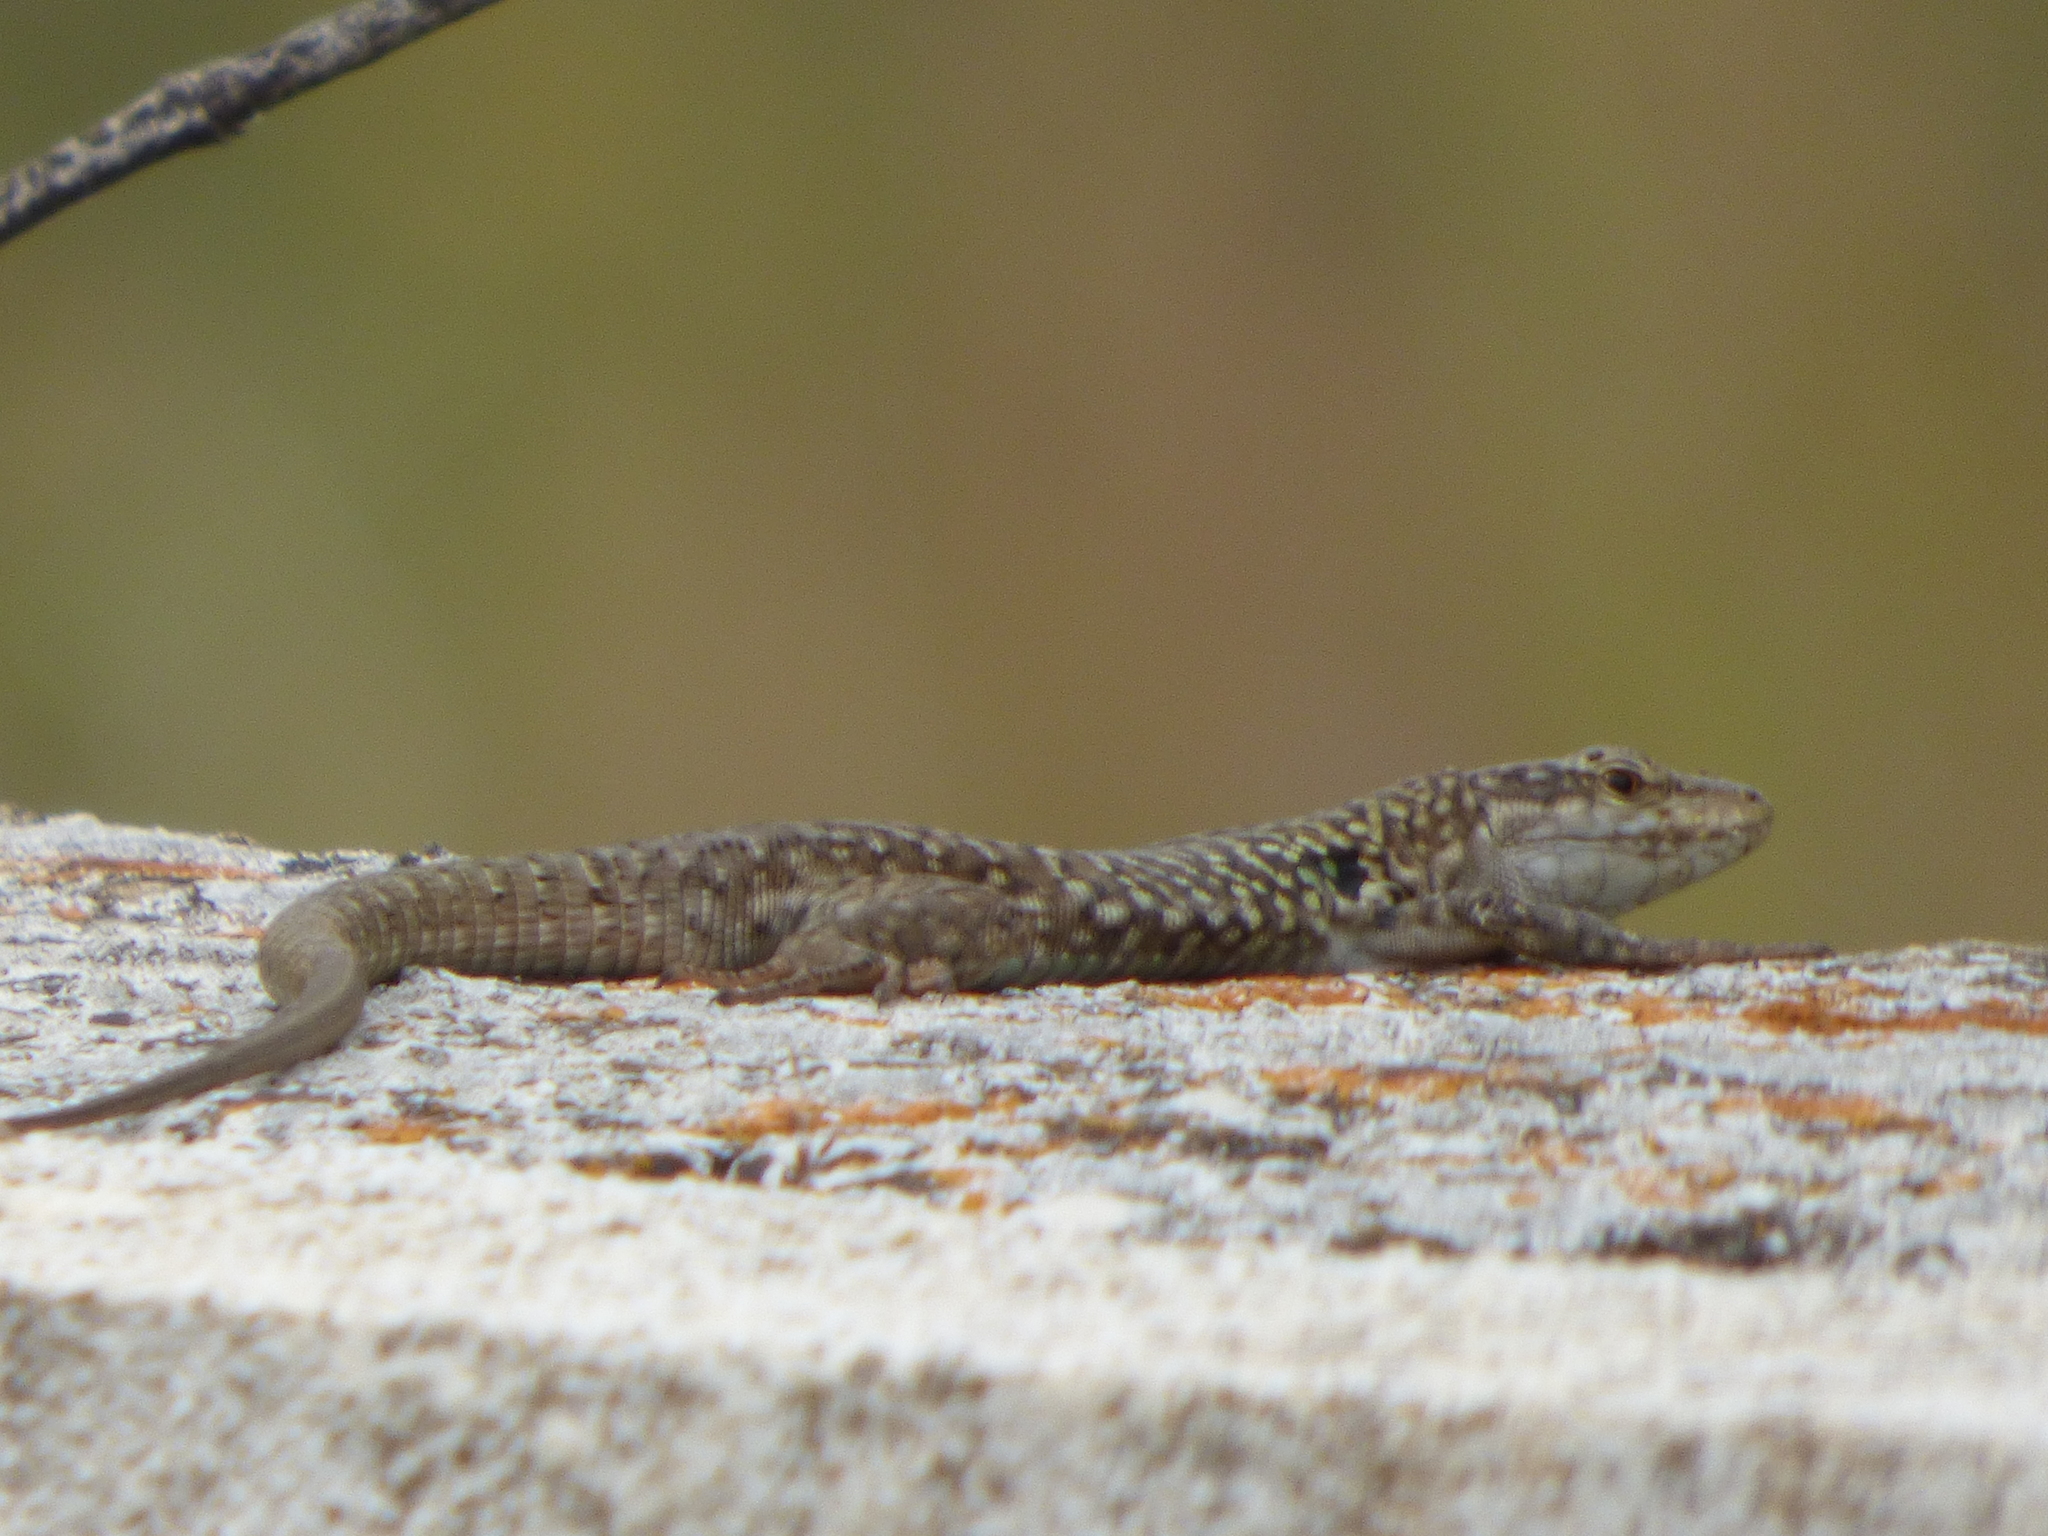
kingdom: Animalia
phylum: Chordata
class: Squamata
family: Lacertidae
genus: Podarcis
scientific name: Podarcis siculus
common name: Italian wall lizard
